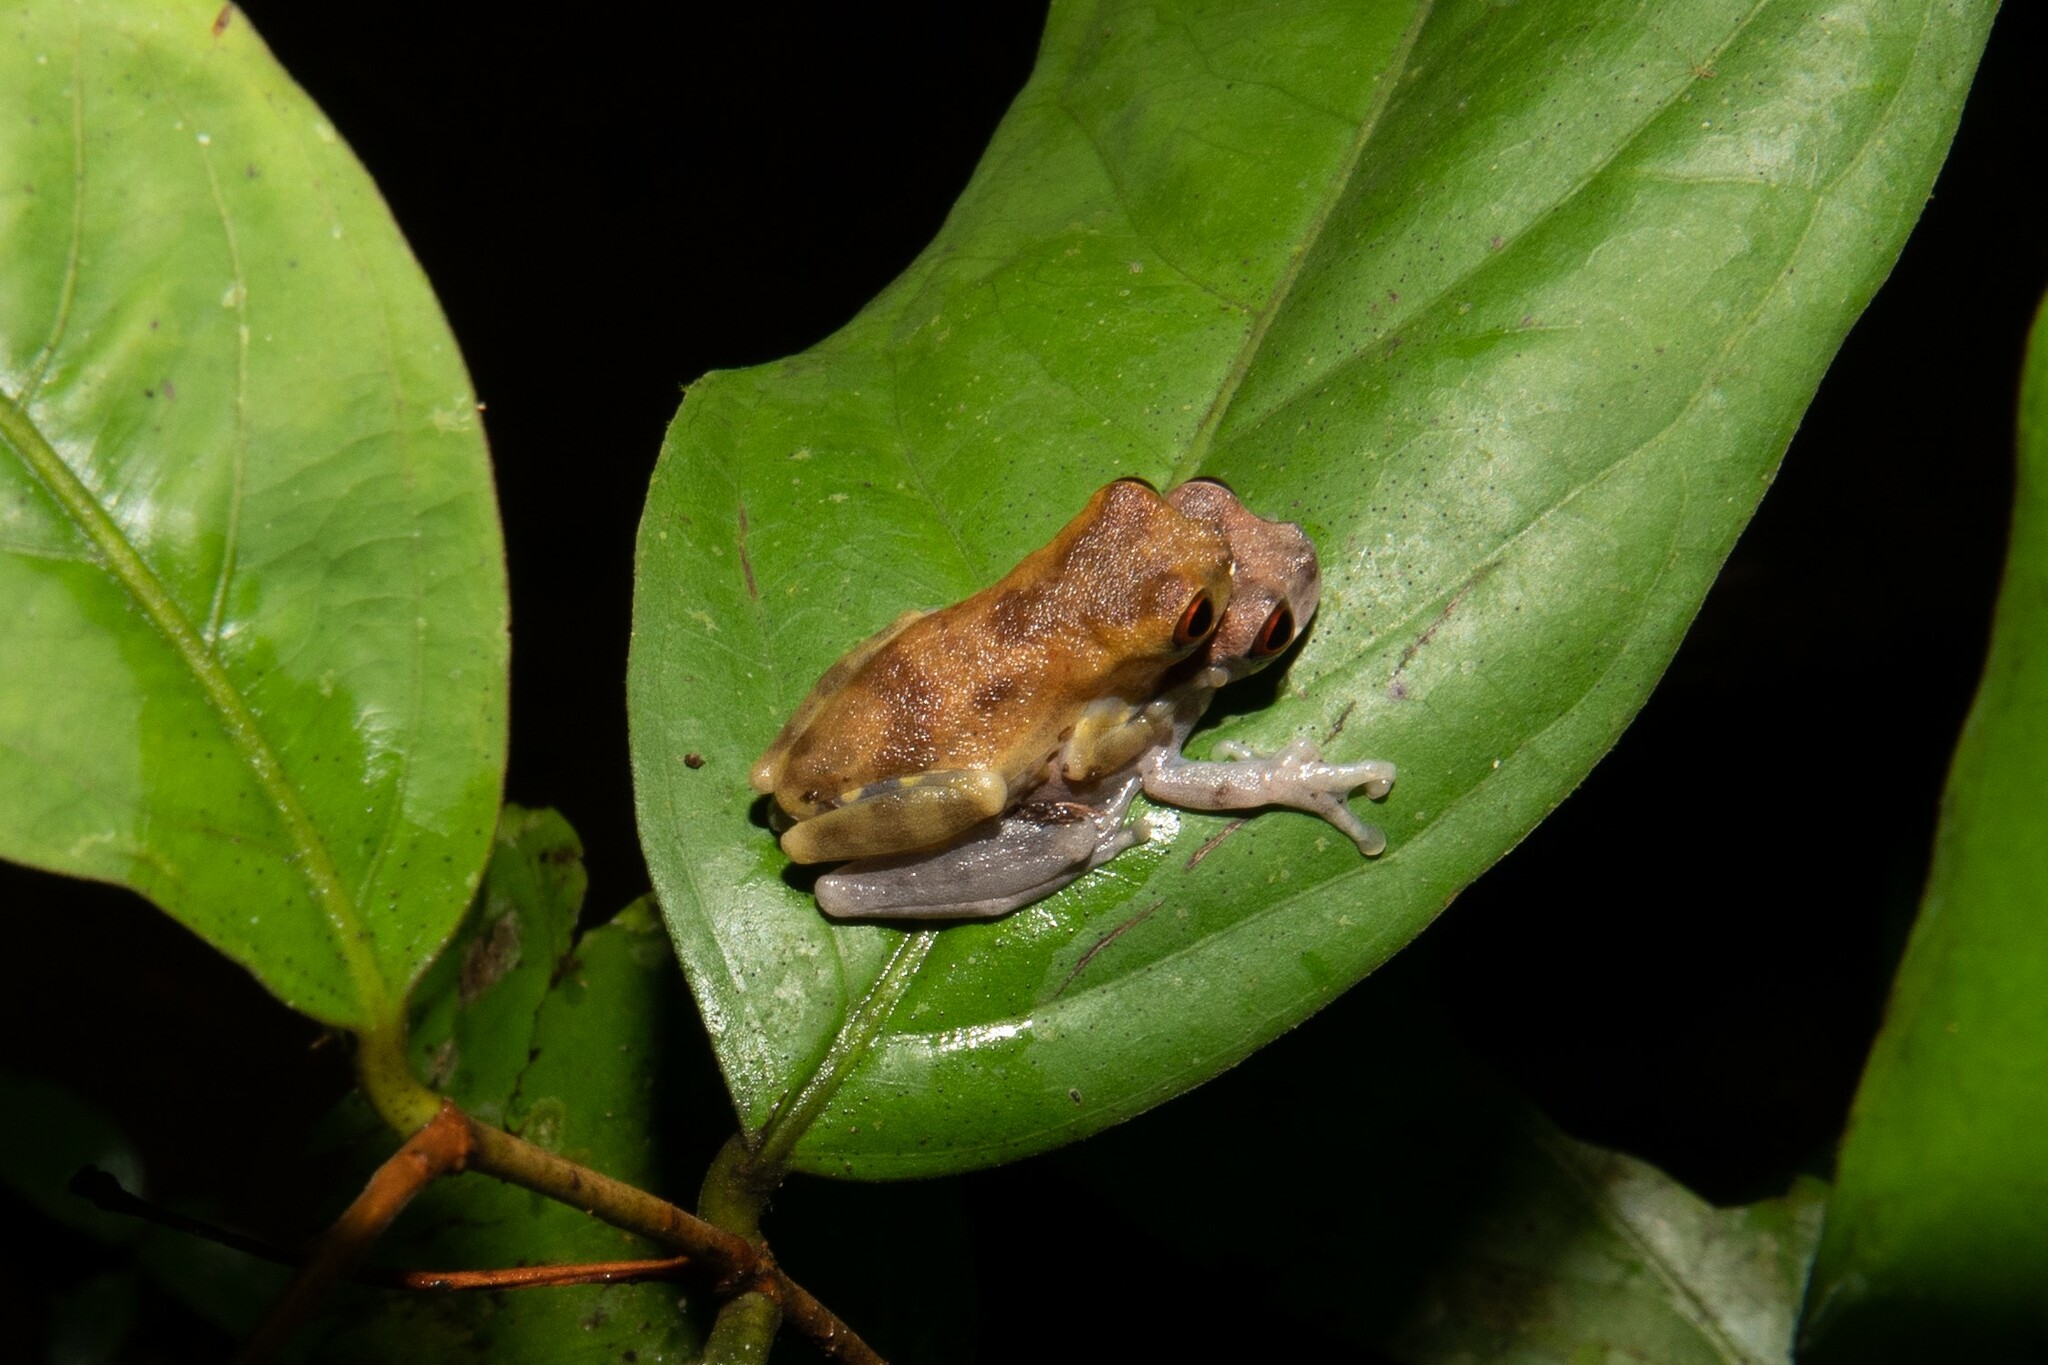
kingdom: Animalia
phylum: Chordata
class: Amphibia
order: Anura
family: Hylidae
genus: Dendropsophus
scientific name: Dendropsophus parviceps
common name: Sarayacu treefrog
